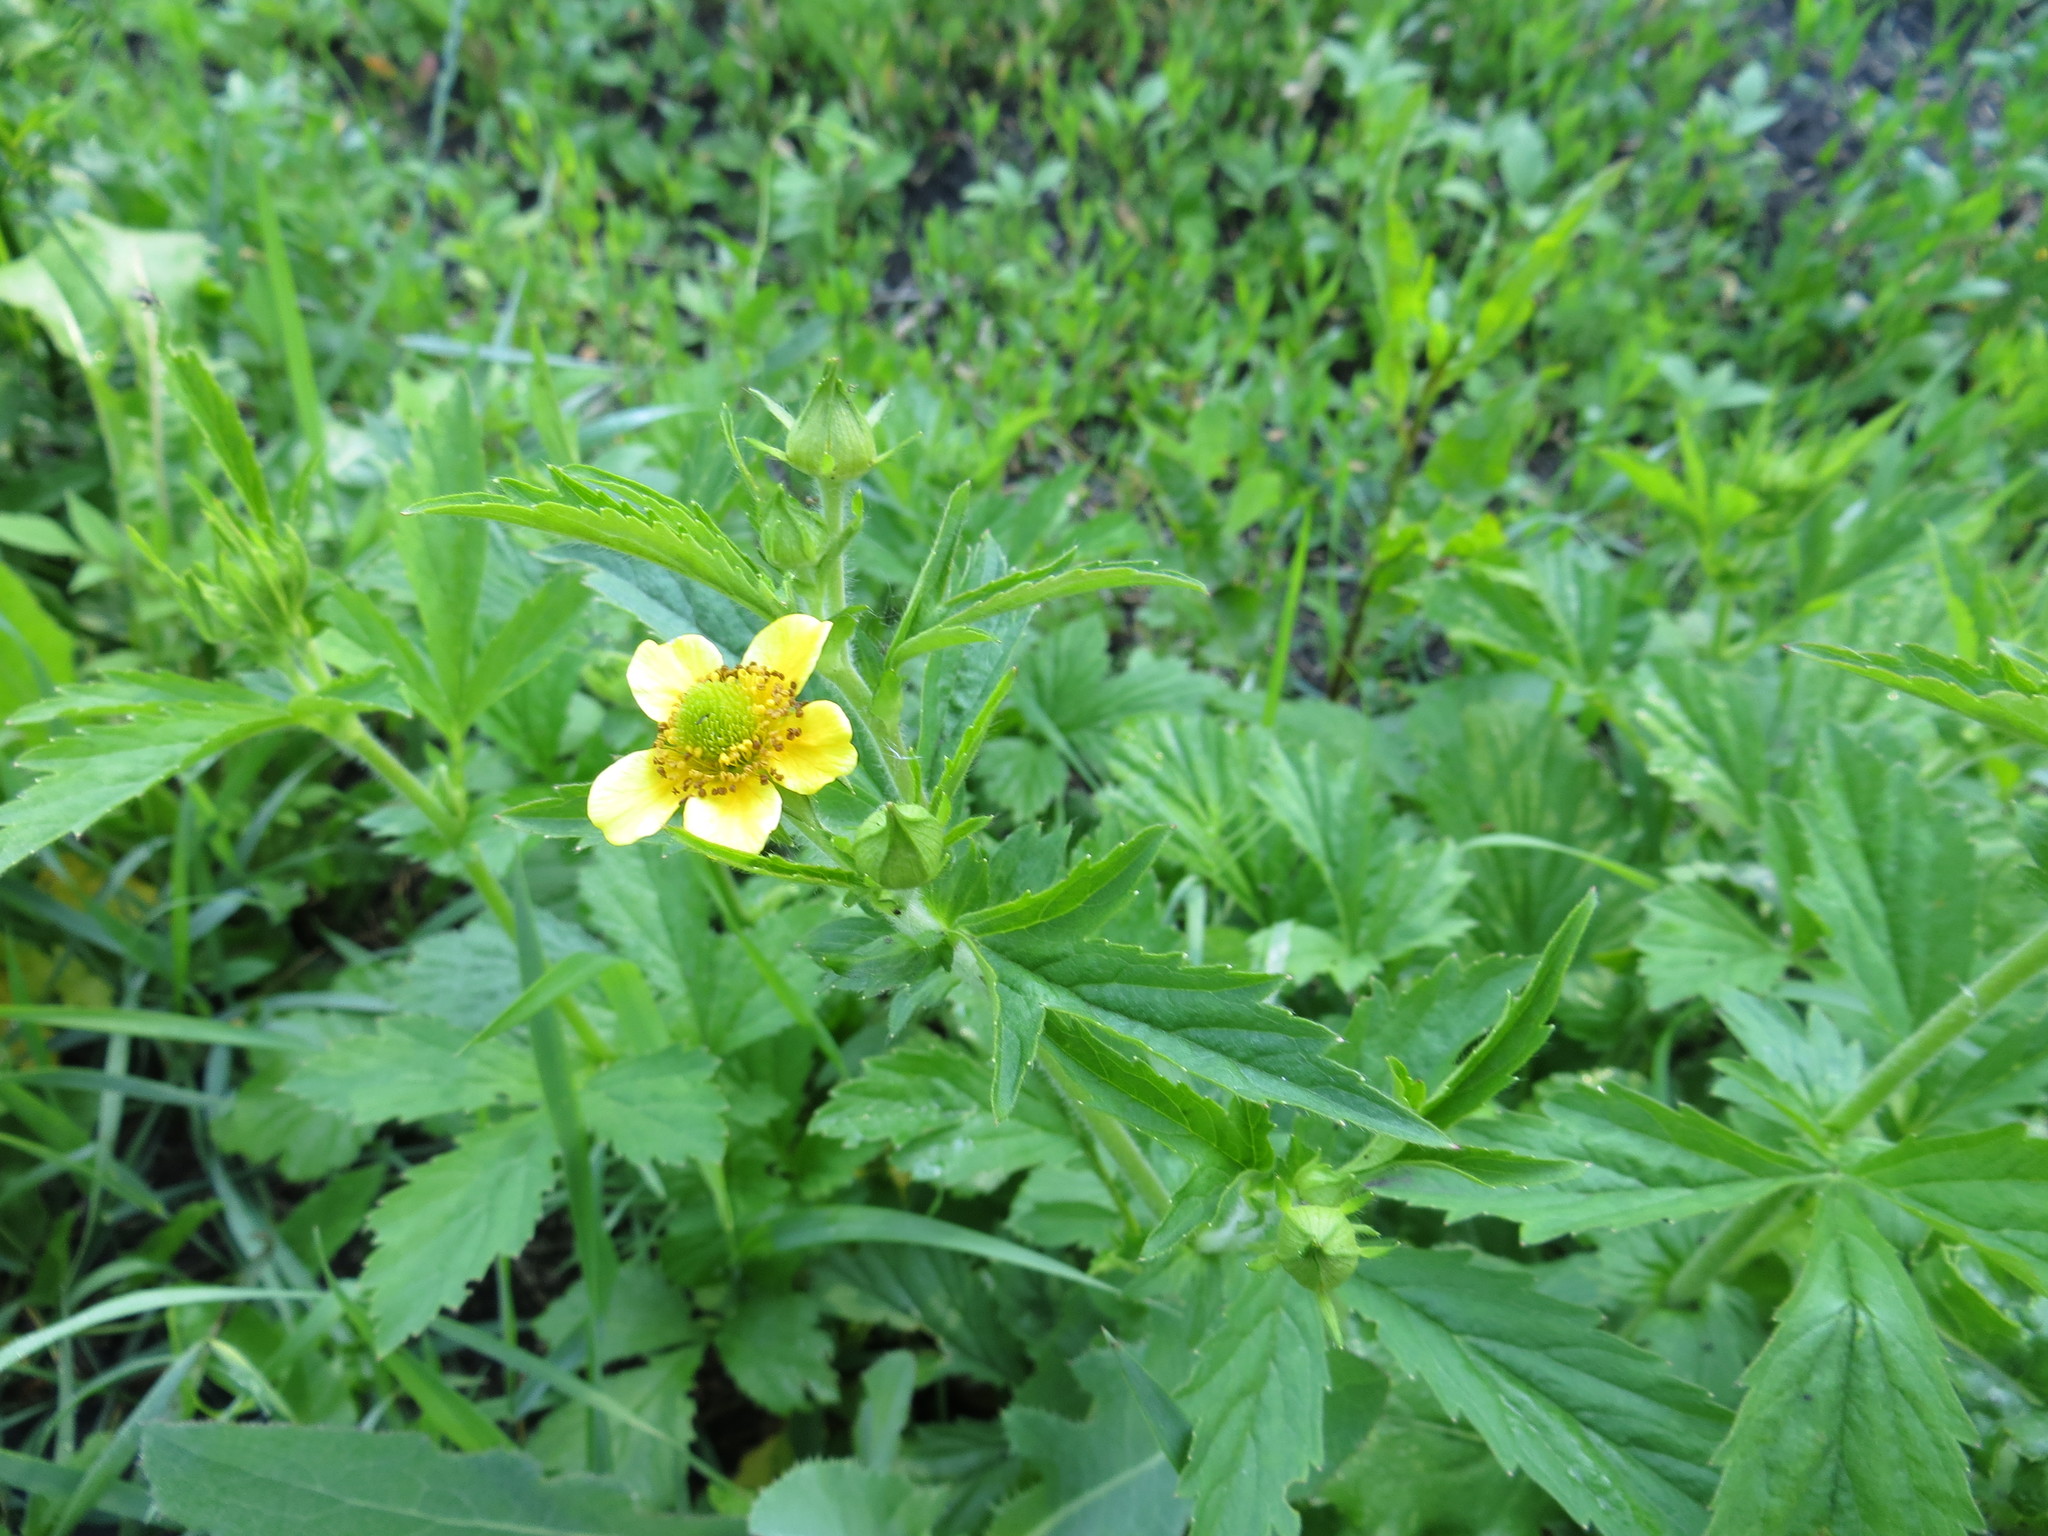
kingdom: Plantae
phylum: Tracheophyta
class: Magnoliopsida
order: Rosales
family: Rosaceae
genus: Geum
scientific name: Geum aleppicum
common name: Yellow avens
